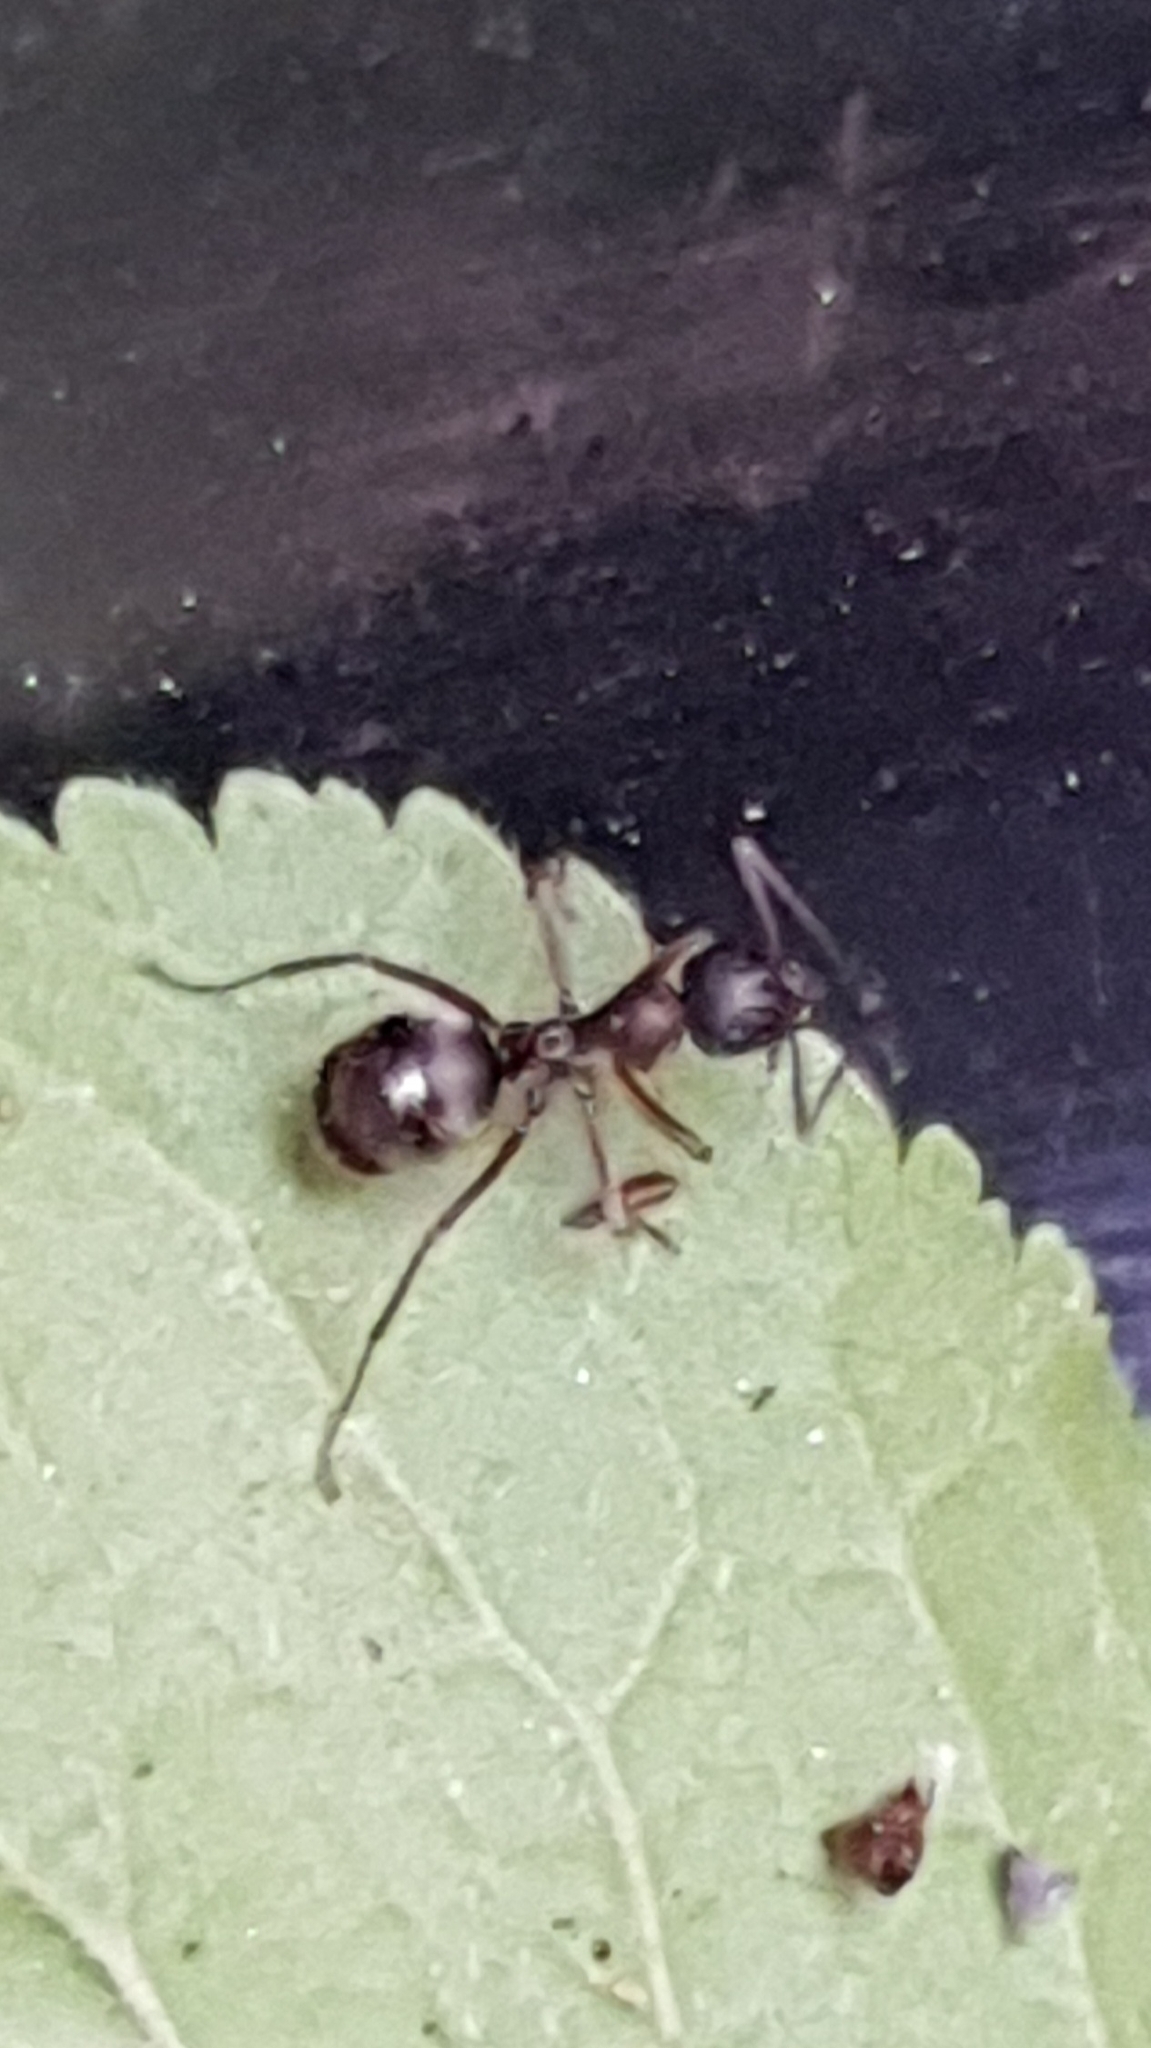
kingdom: Animalia
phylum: Arthropoda
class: Insecta
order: Hymenoptera
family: Formicidae
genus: Formica
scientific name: Formica cunicularia
